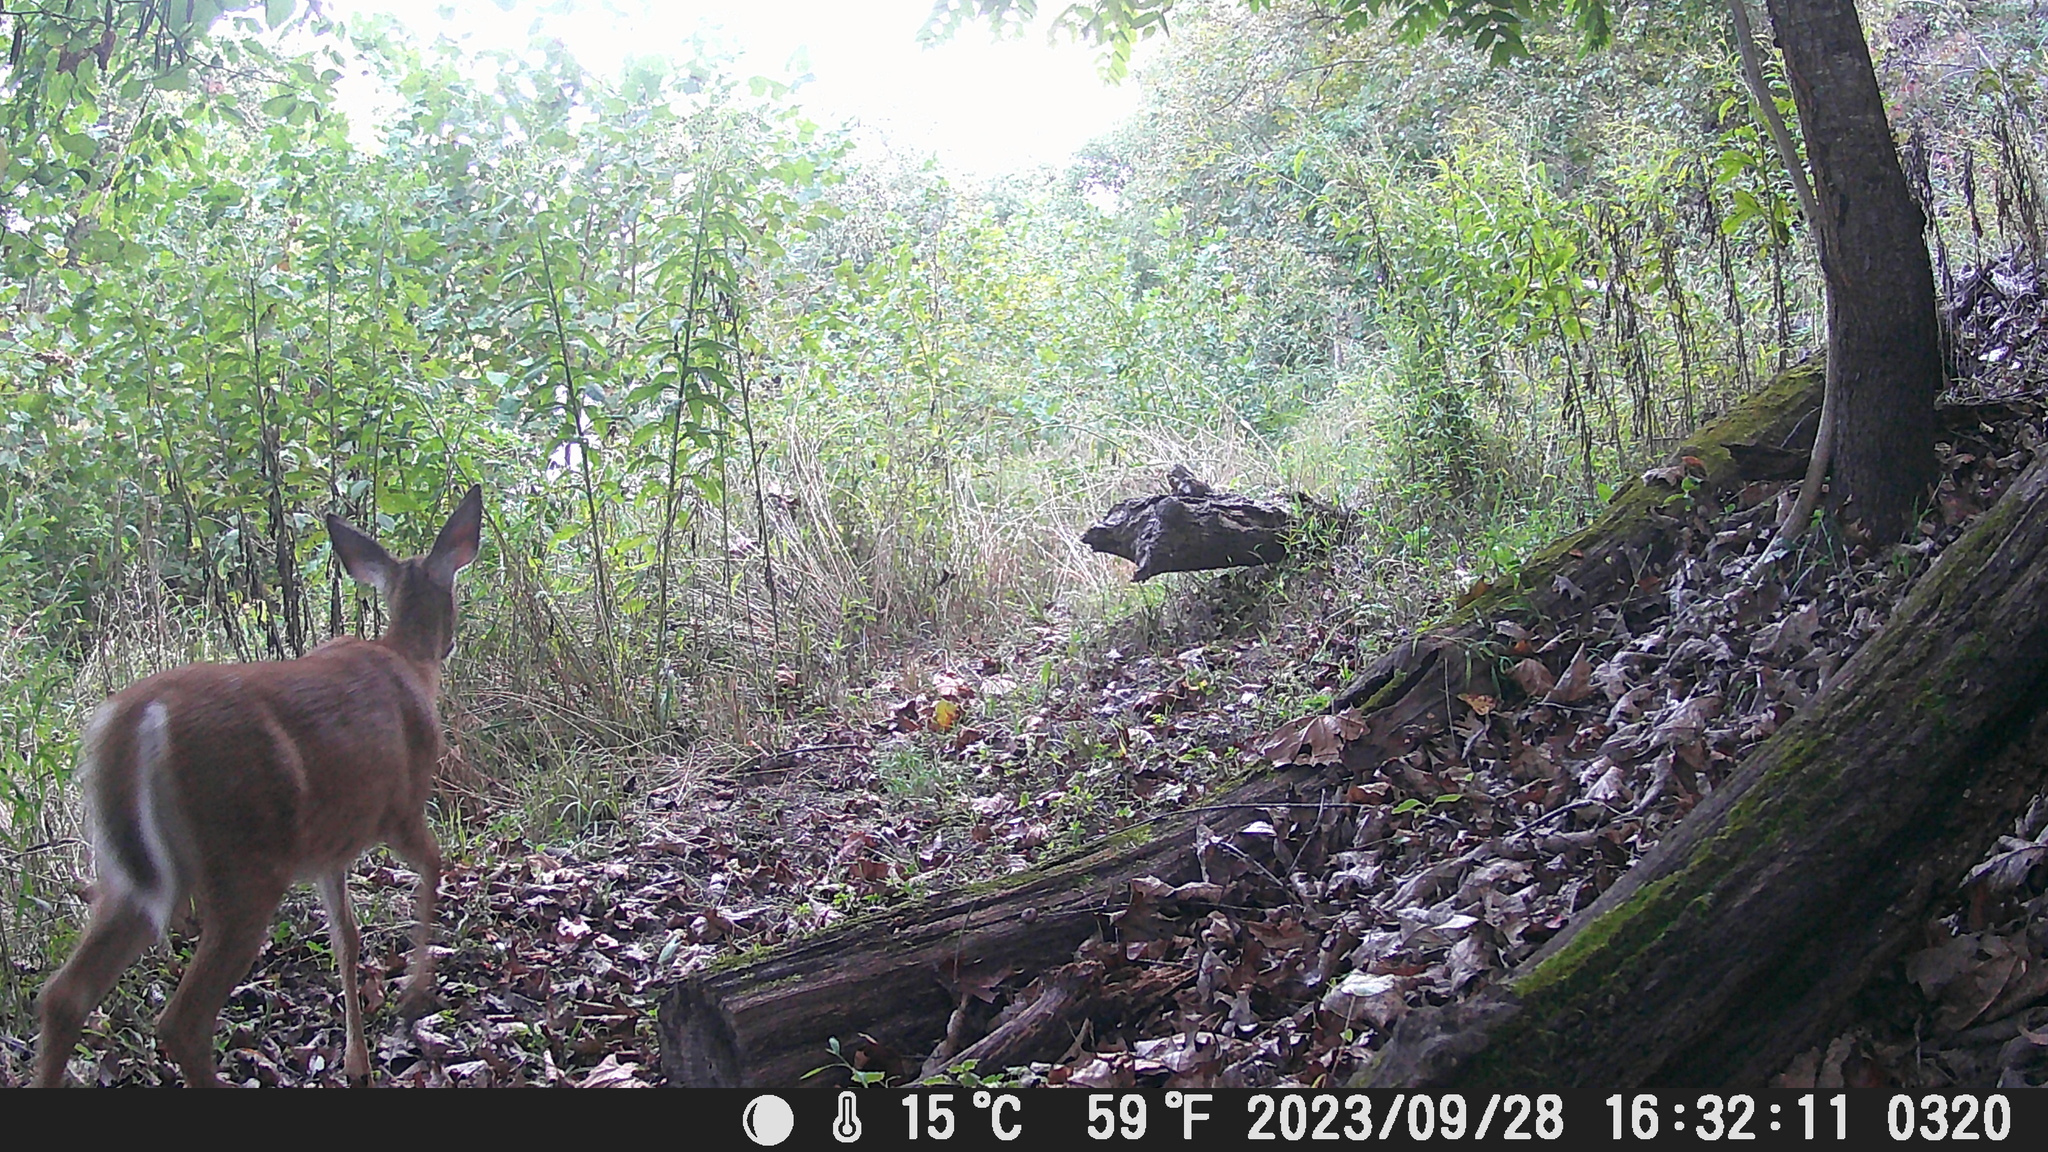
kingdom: Animalia
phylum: Chordata
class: Mammalia
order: Artiodactyla
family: Cervidae
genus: Odocoileus
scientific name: Odocoileus virginianus
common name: White-tailed deer
